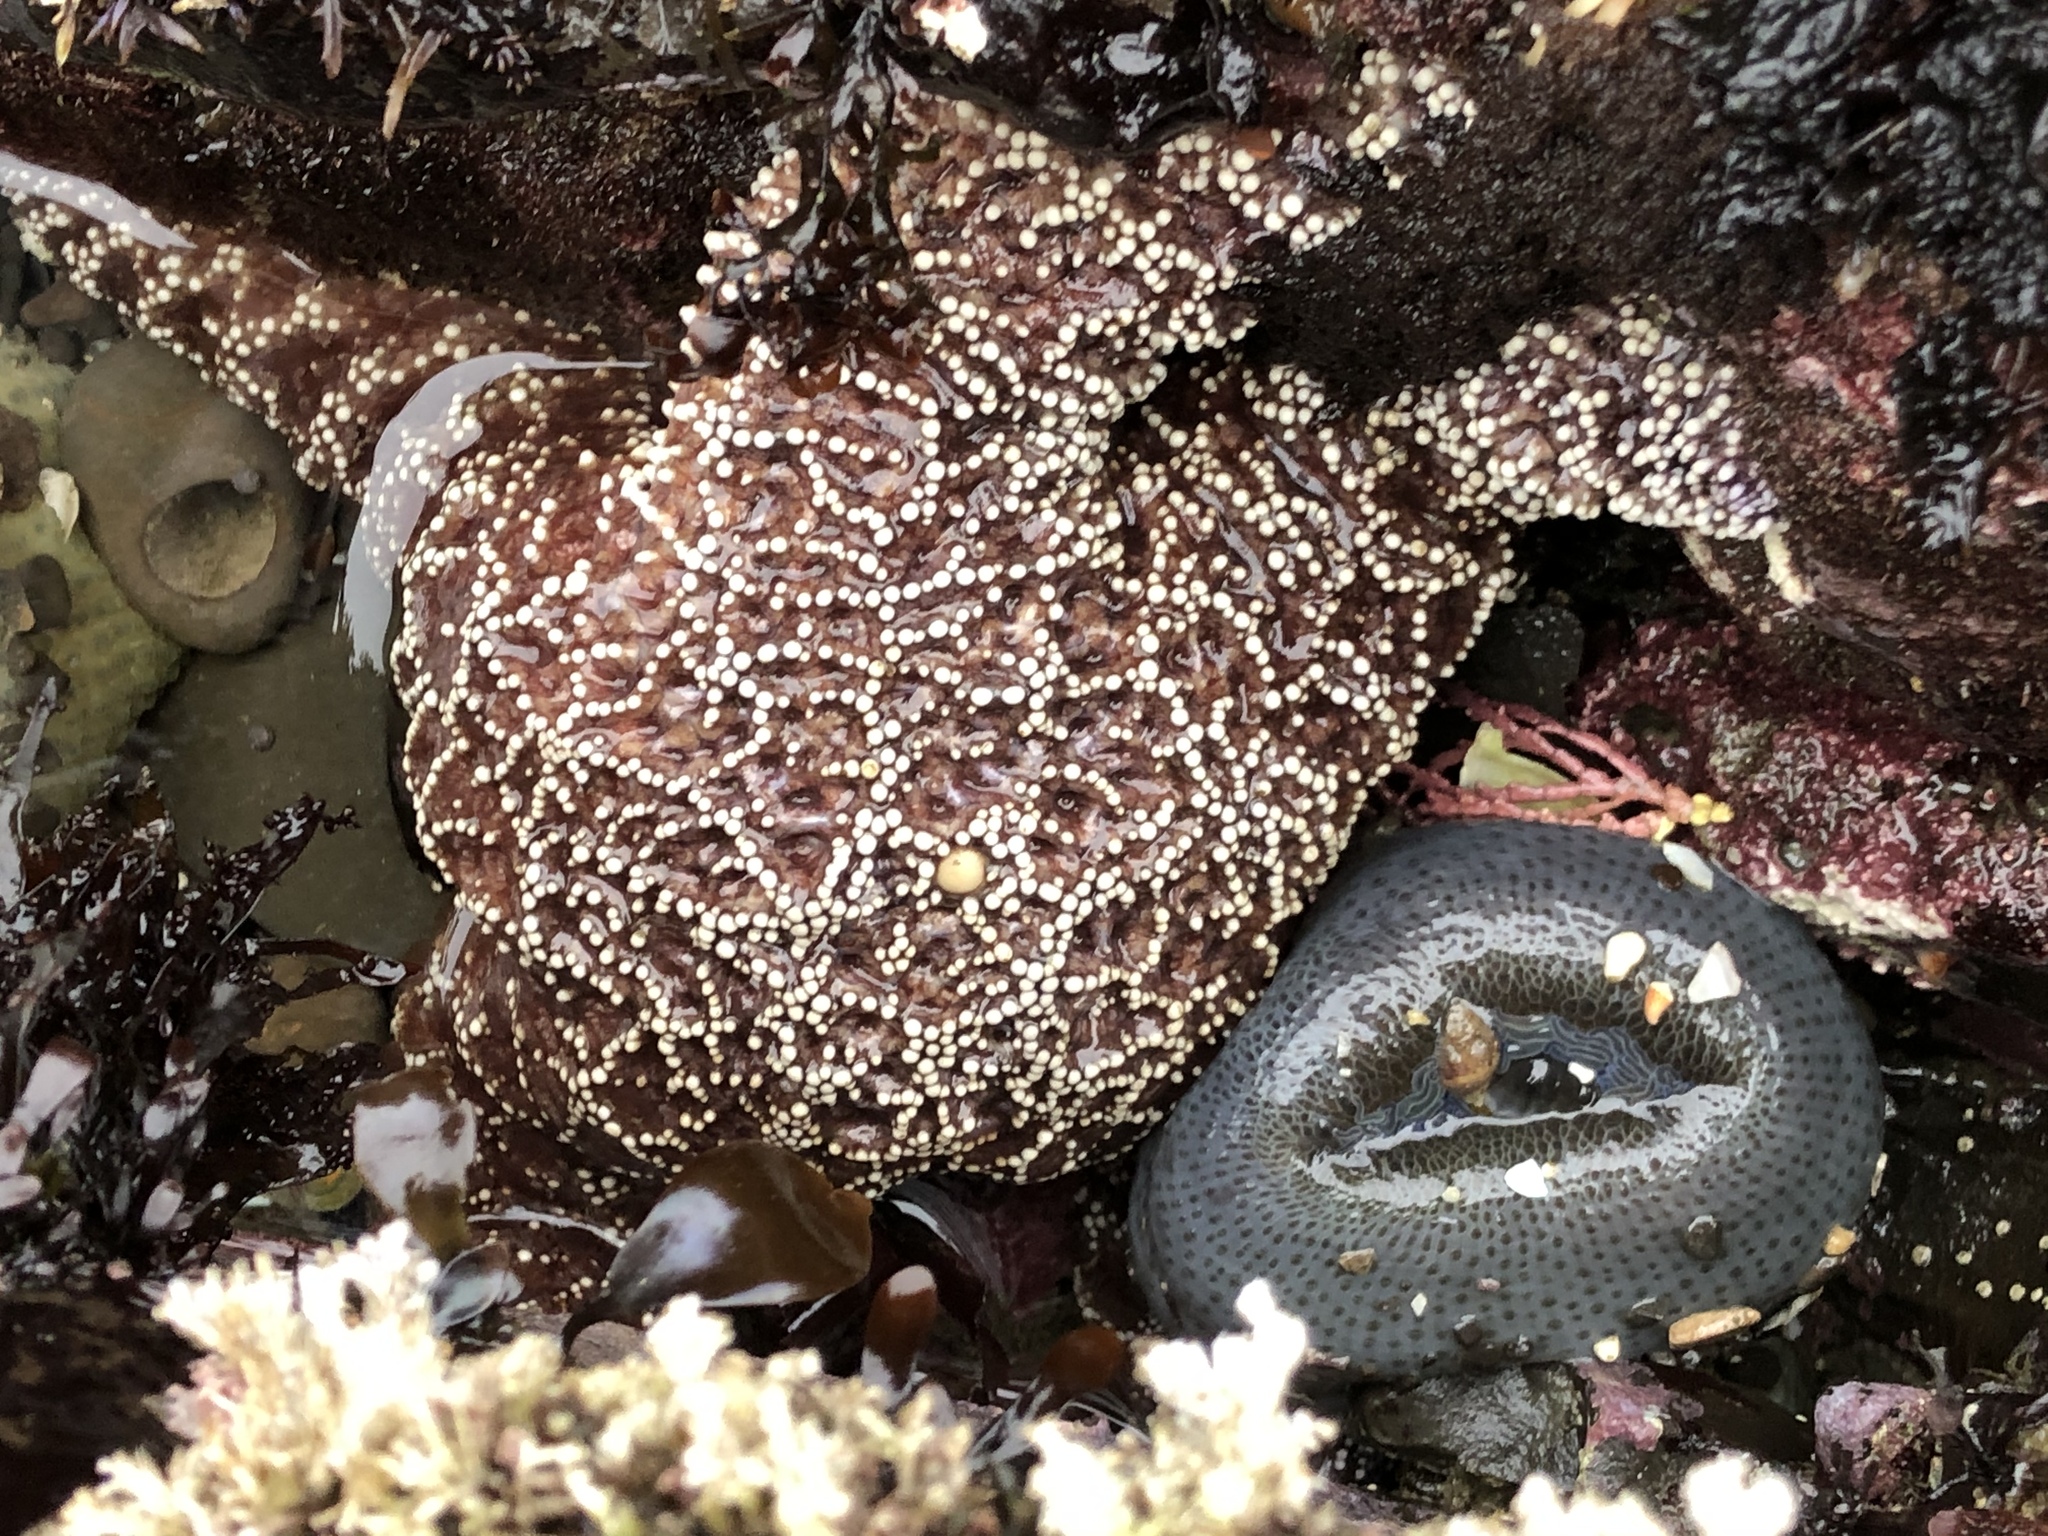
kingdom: Animalia
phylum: Echinodermata
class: Asteroidea
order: Forcipulatida
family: Asteriidae
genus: Pisaster
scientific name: Pisaster ochraceus
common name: Ochre stars
